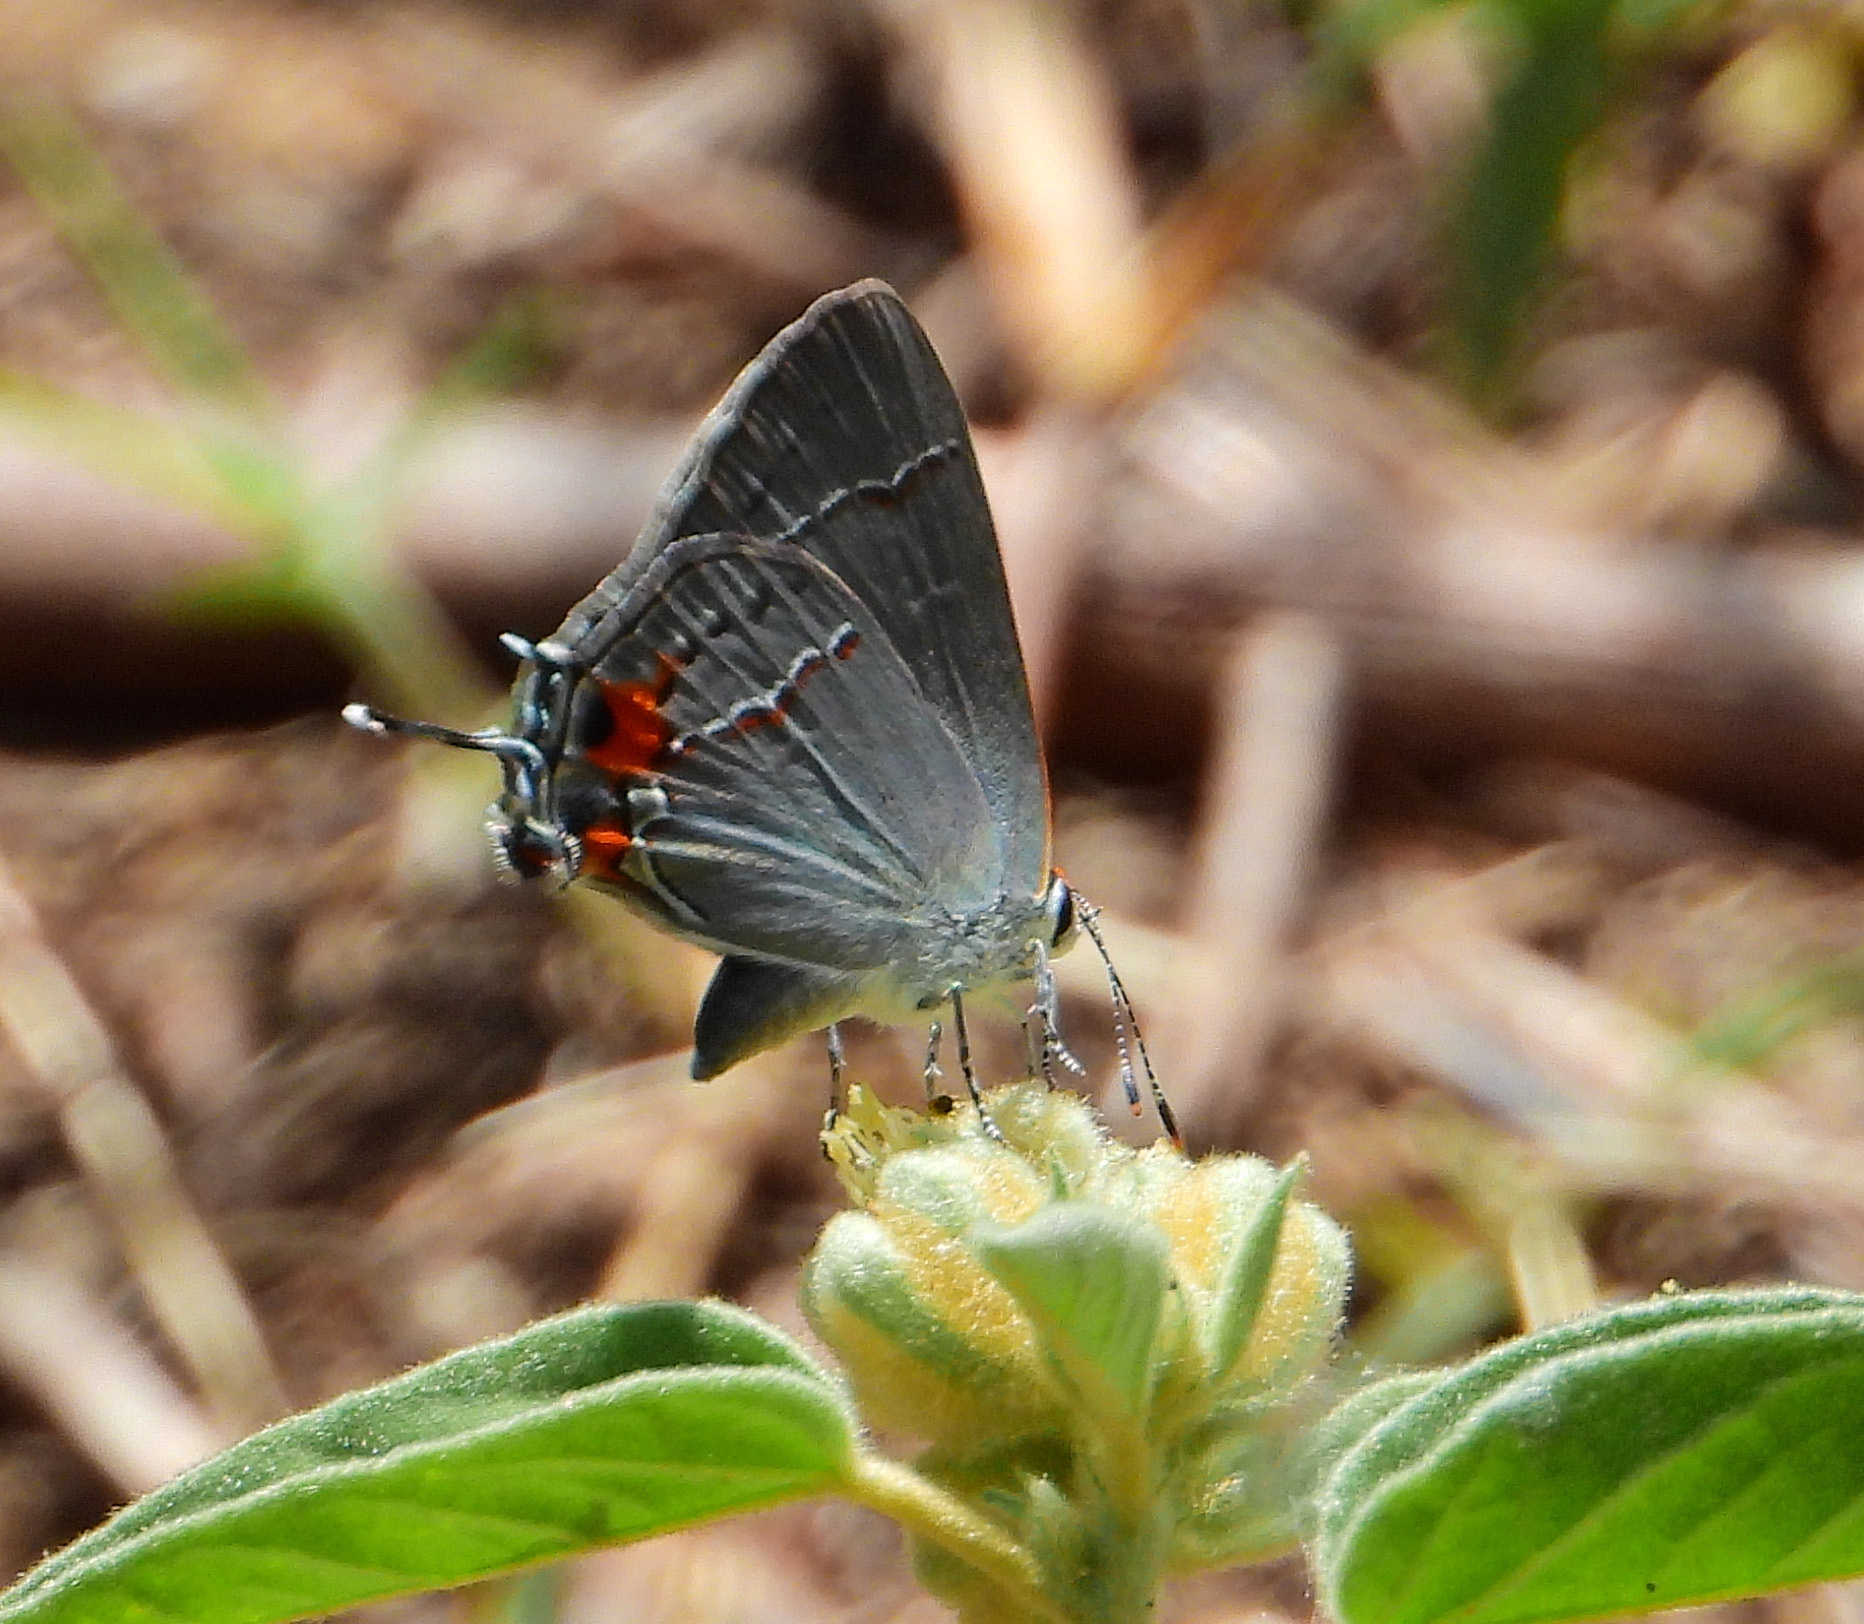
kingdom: Animalia
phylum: Arthropoda
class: Insecta
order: Lepidoptera
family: Lycaenidae
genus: Strymon
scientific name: Strymon melinus
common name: Gray hairstreak
